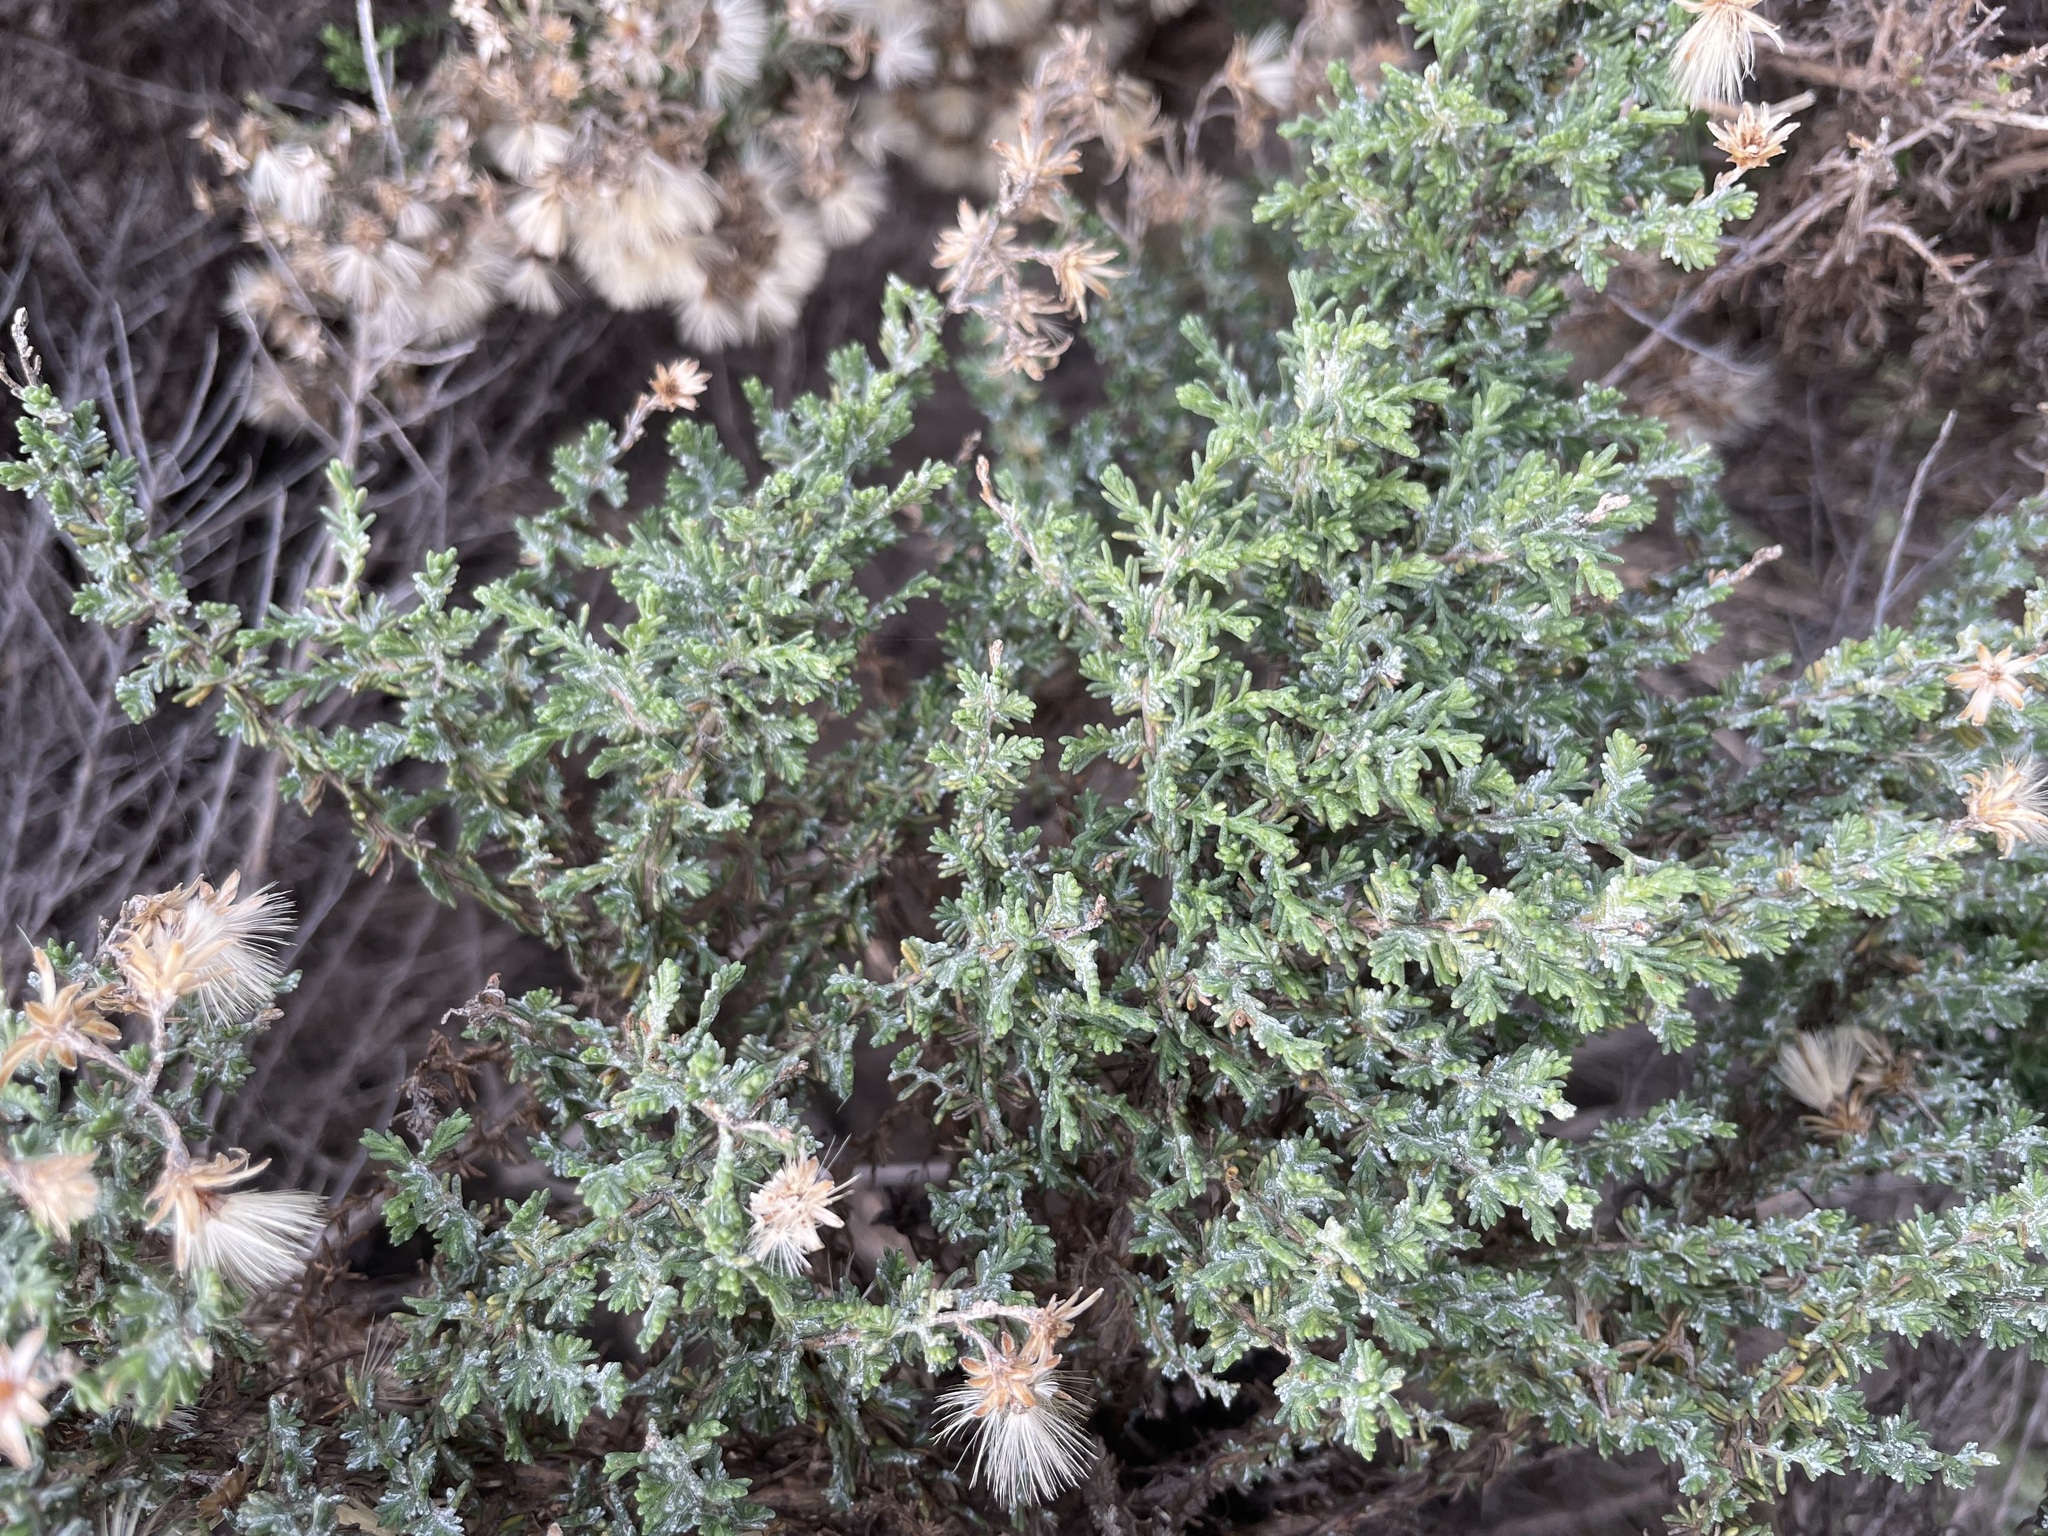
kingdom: Plantae
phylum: Tracheophyta
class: Magnoliopsida
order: Asterales
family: Asteraceae
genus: Ericameria
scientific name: Ericameria ericoides
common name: California goldenbush
